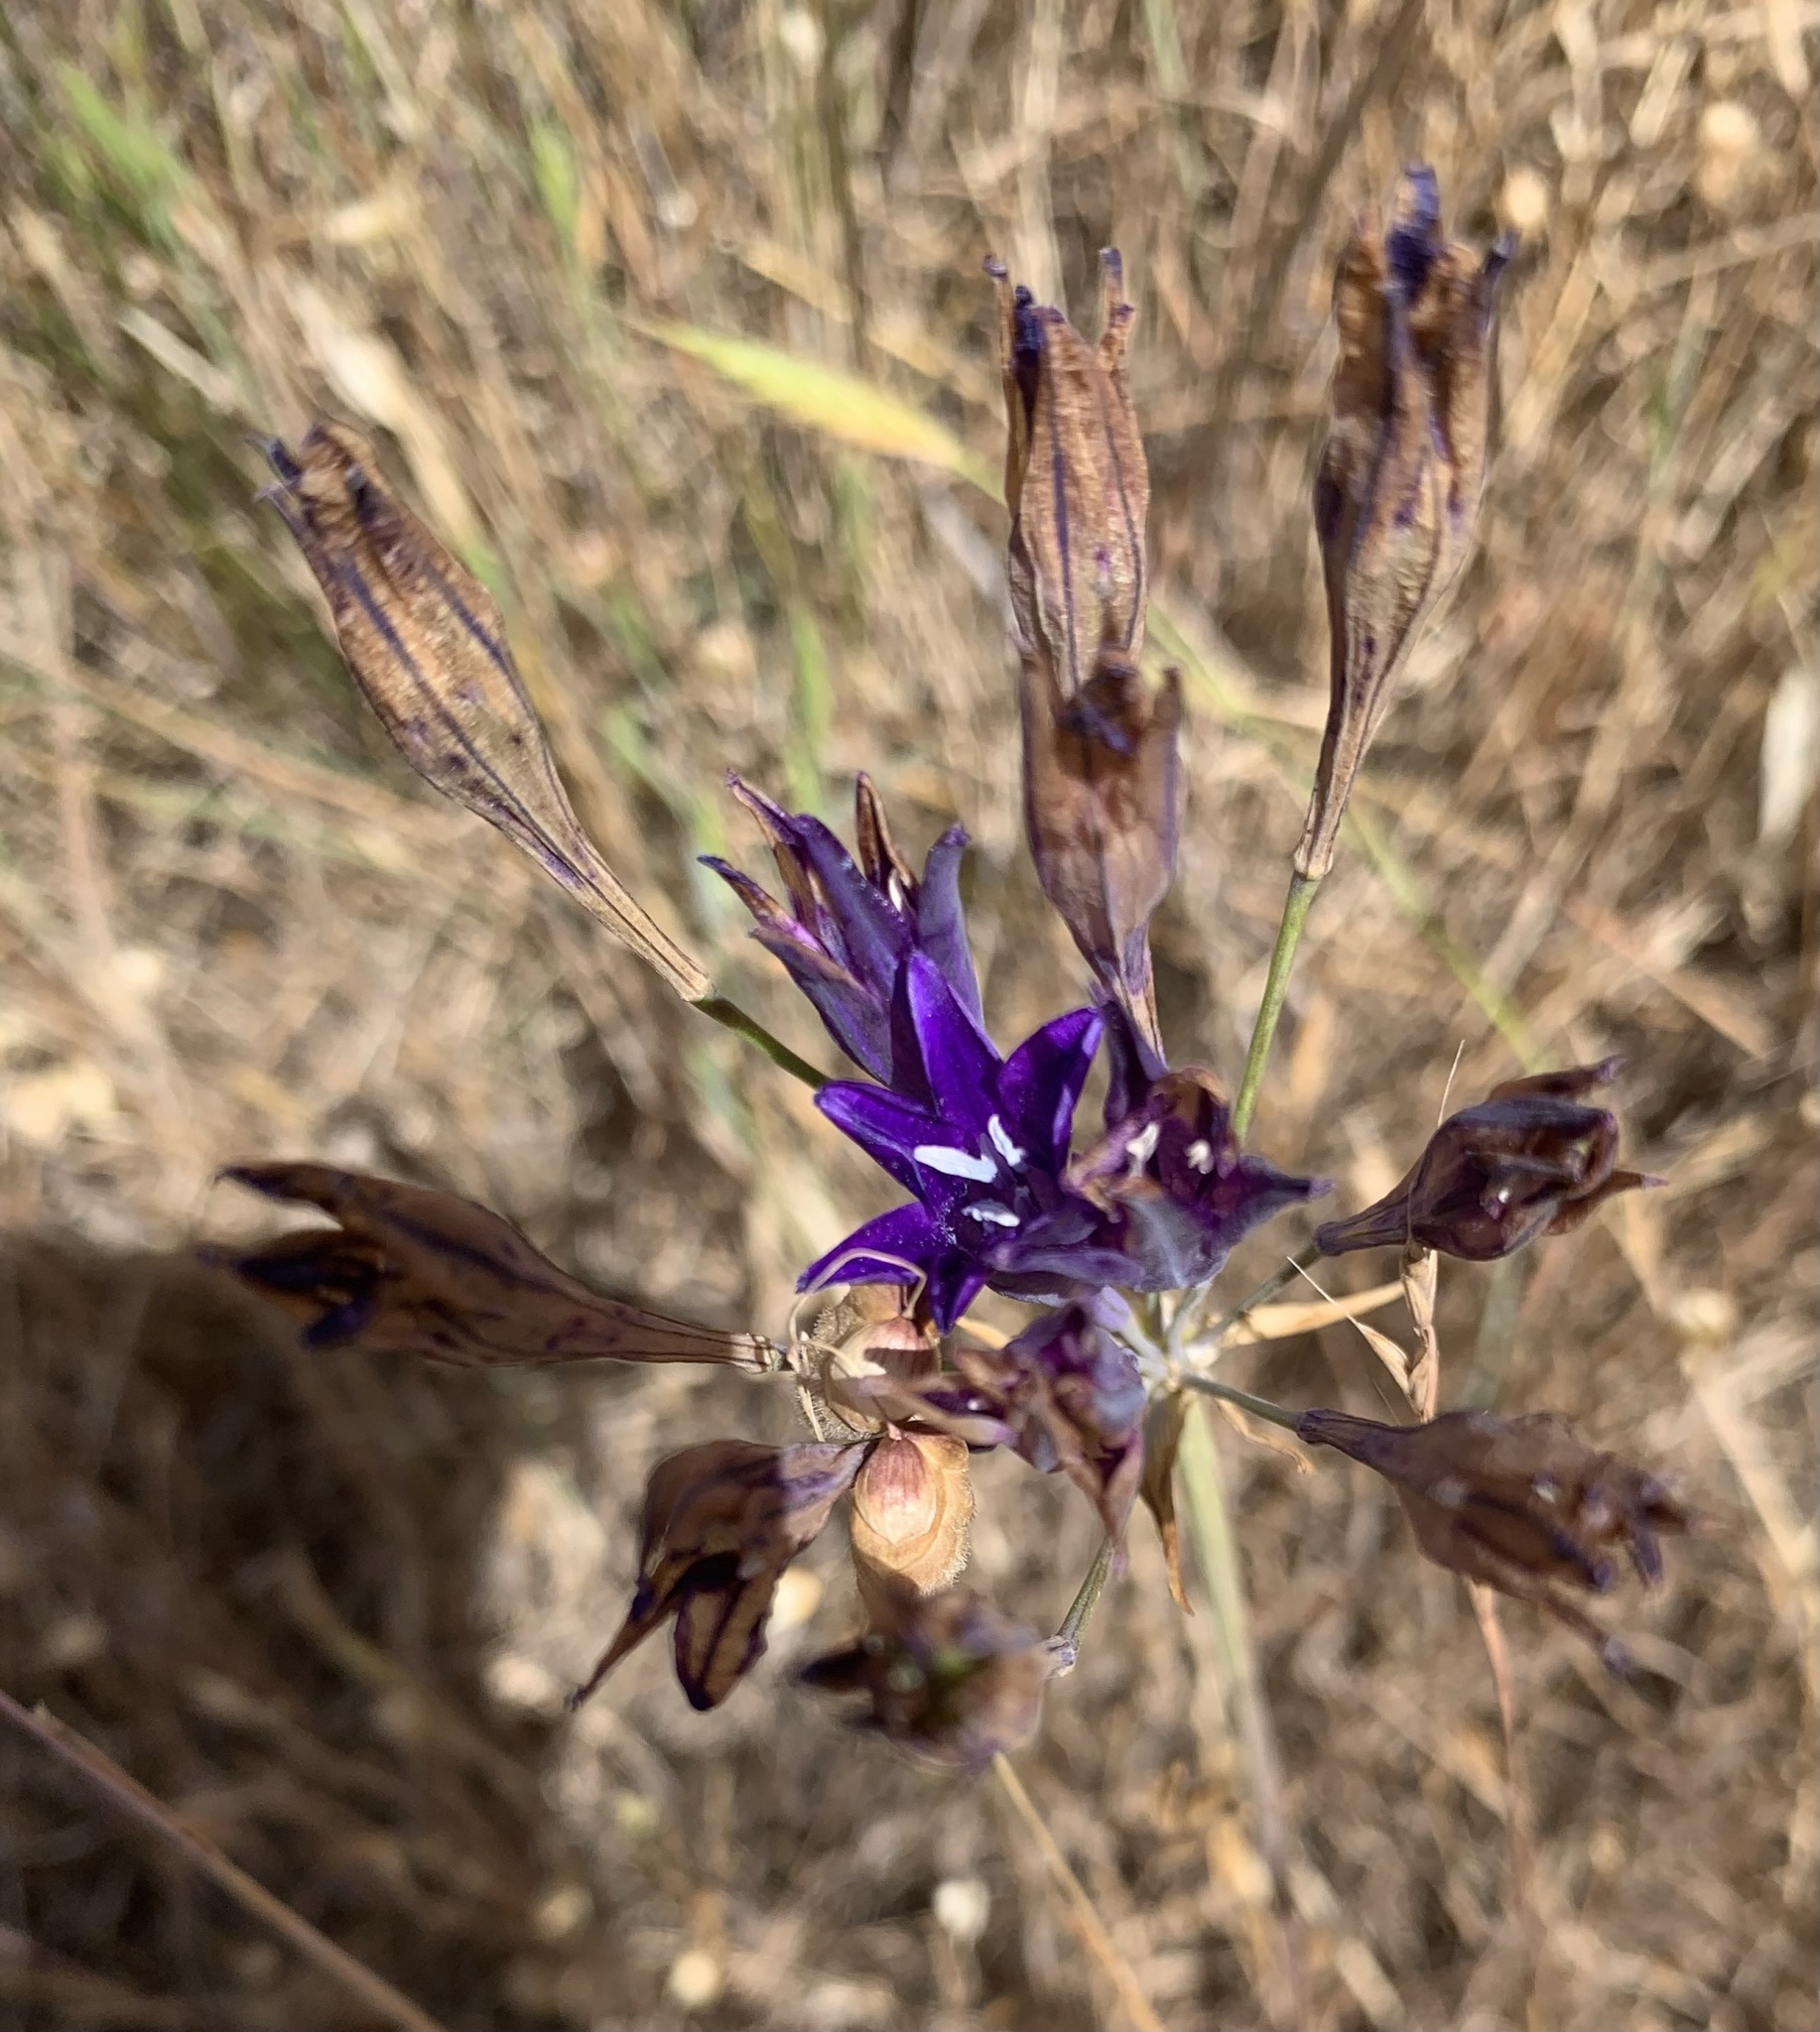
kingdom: Plantae
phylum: Tracheophyta
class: Liliopsida
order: Asparagales
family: Asparagaceae
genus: Triteleia
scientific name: Triteleia laxa
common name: Triplet-lily
